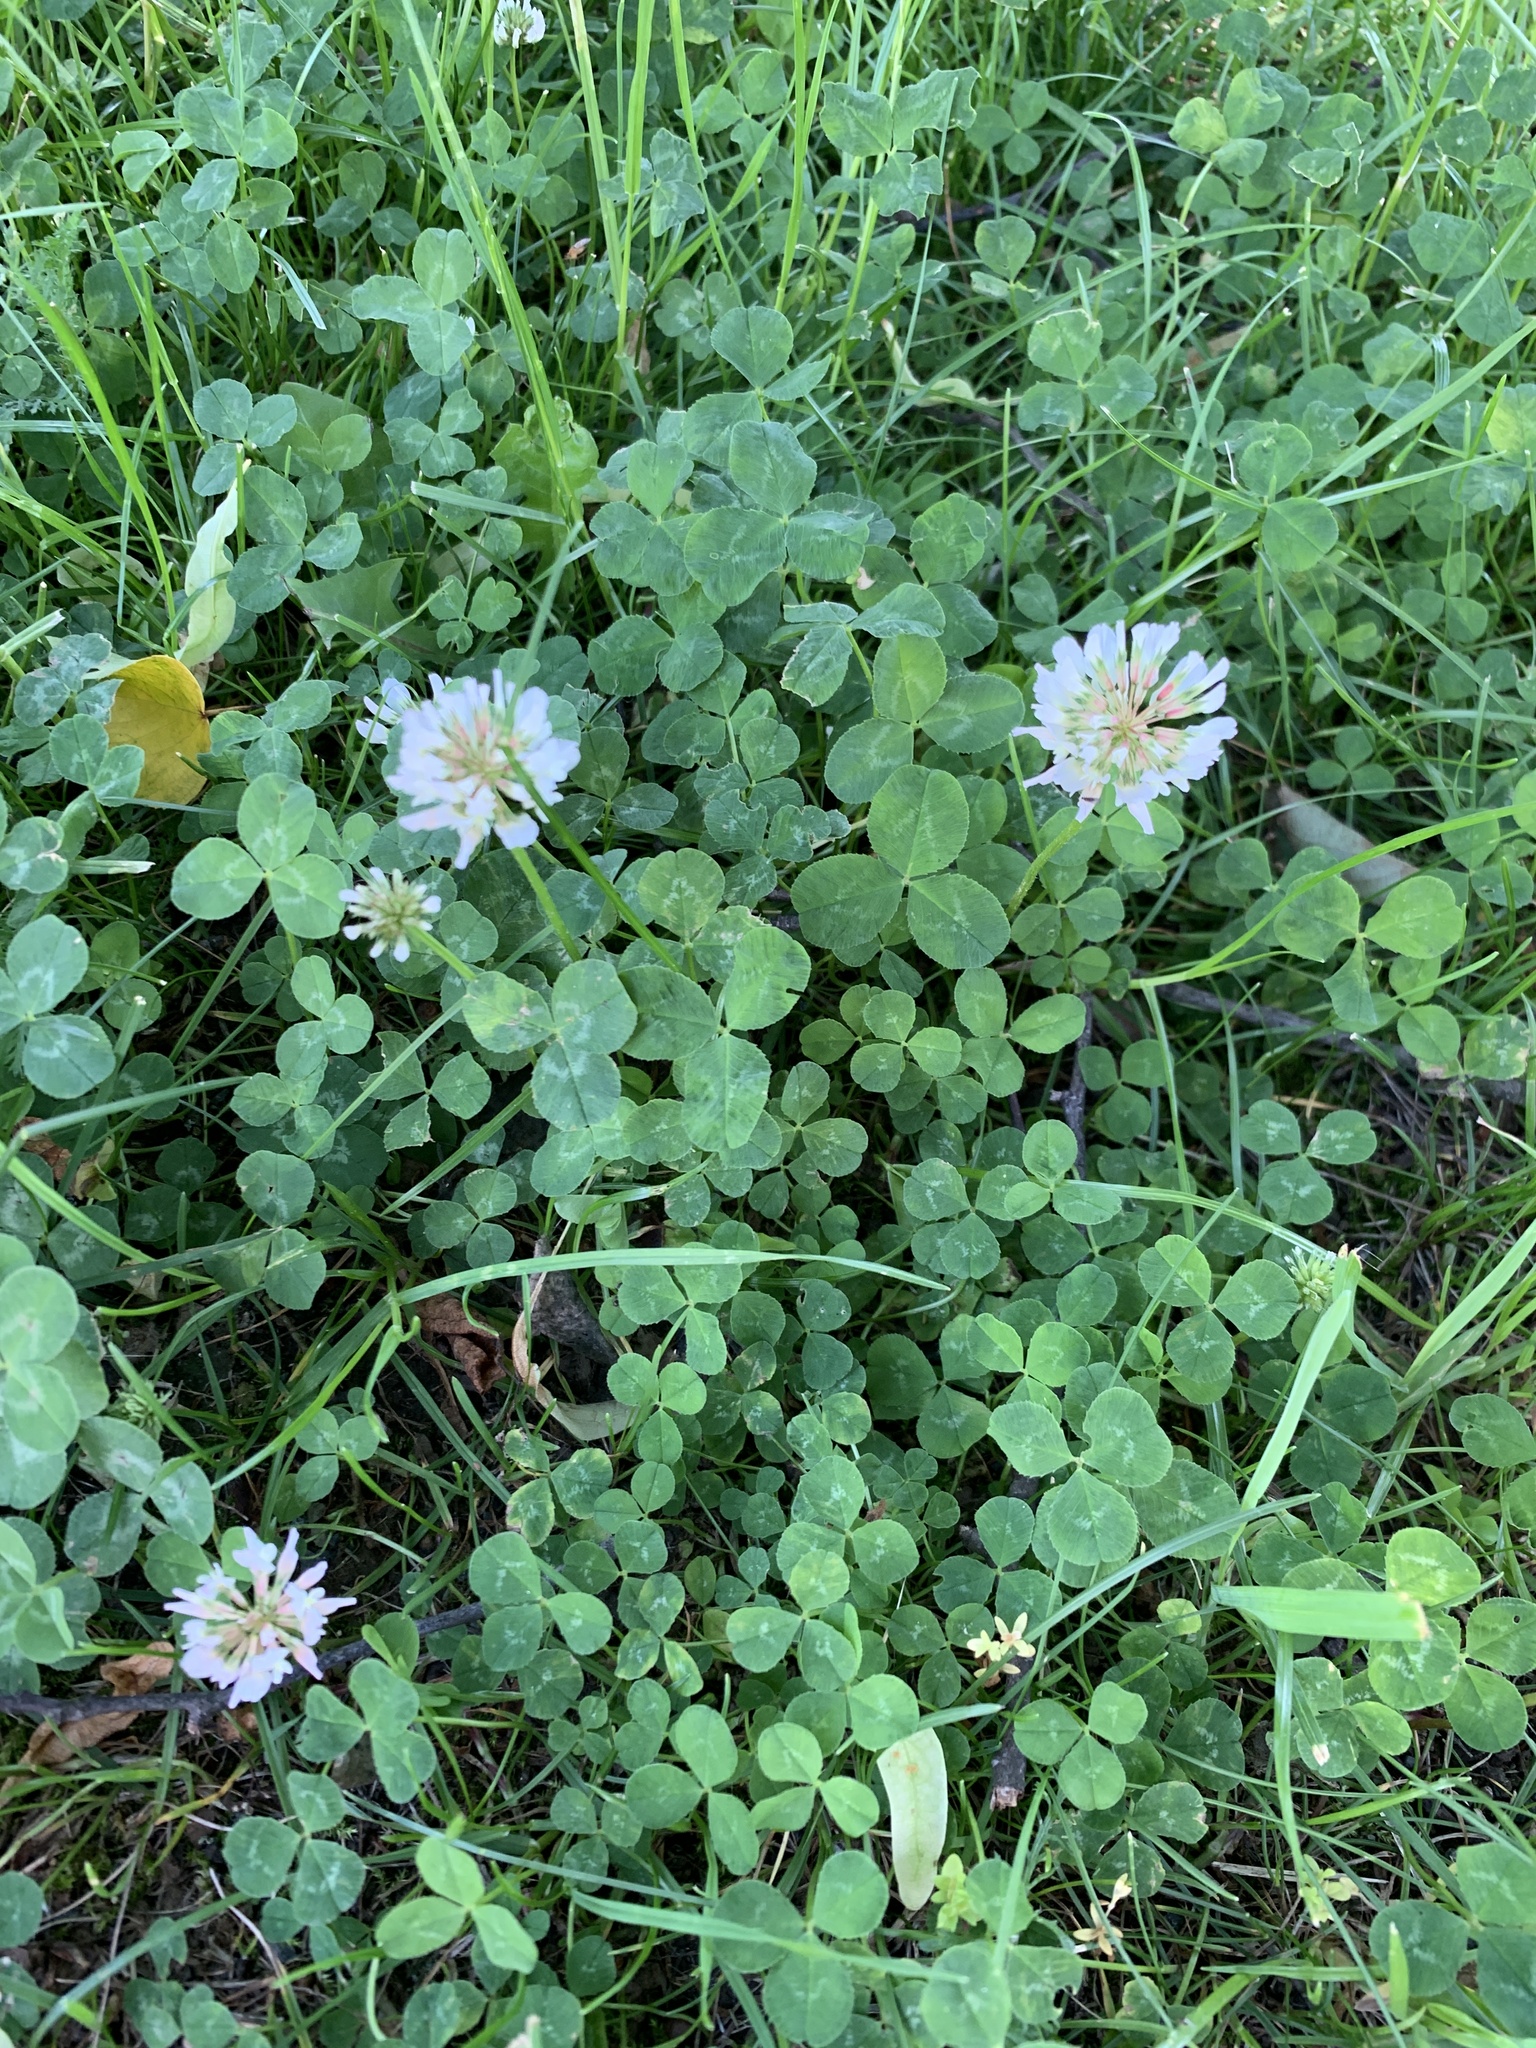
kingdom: Plantae
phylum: Tracheophyta
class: Magnoliopsida
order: Fabales
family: Fabaceae
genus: Trifolium
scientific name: Trifolium repens
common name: White clover
